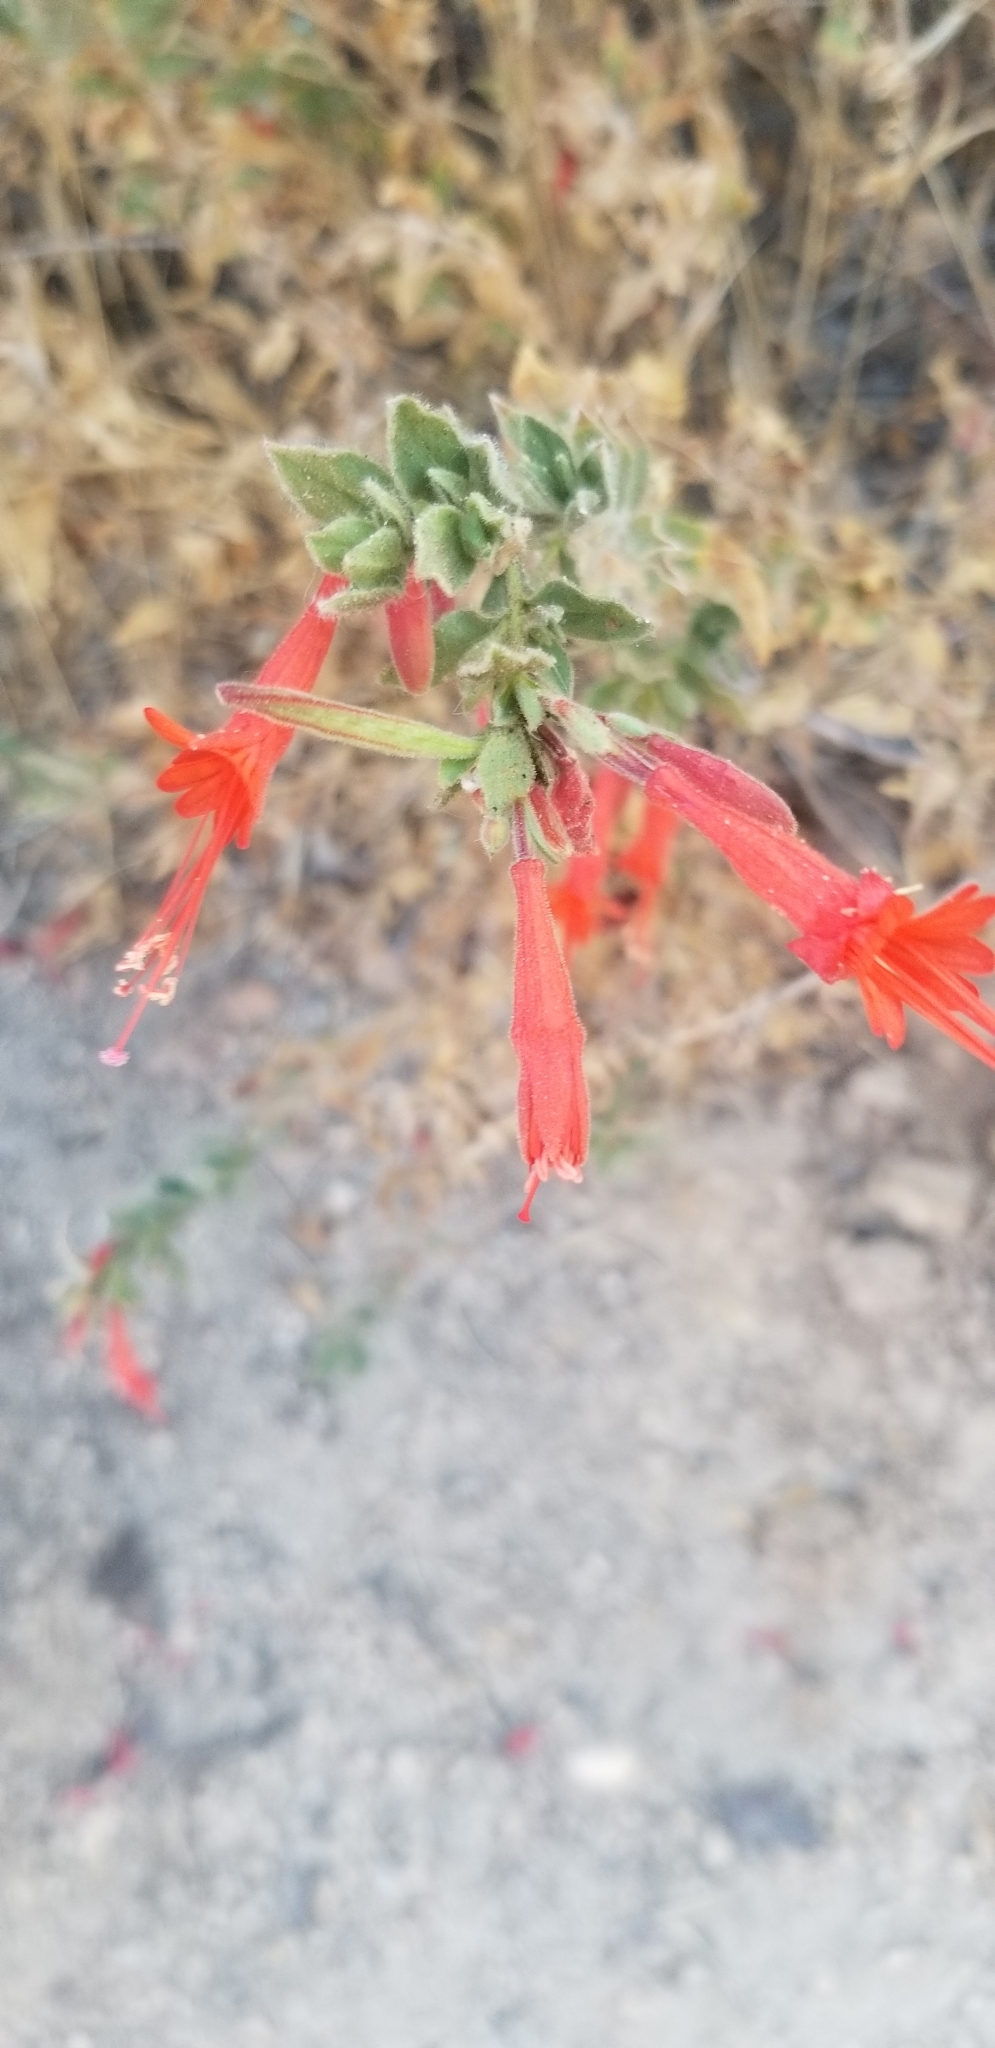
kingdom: Plantae
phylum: Tracheophyta
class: Magnoliopsida
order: Myrtales
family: Onagraceae
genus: Epilobium
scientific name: Epilobium canum
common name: California-fuchsia
